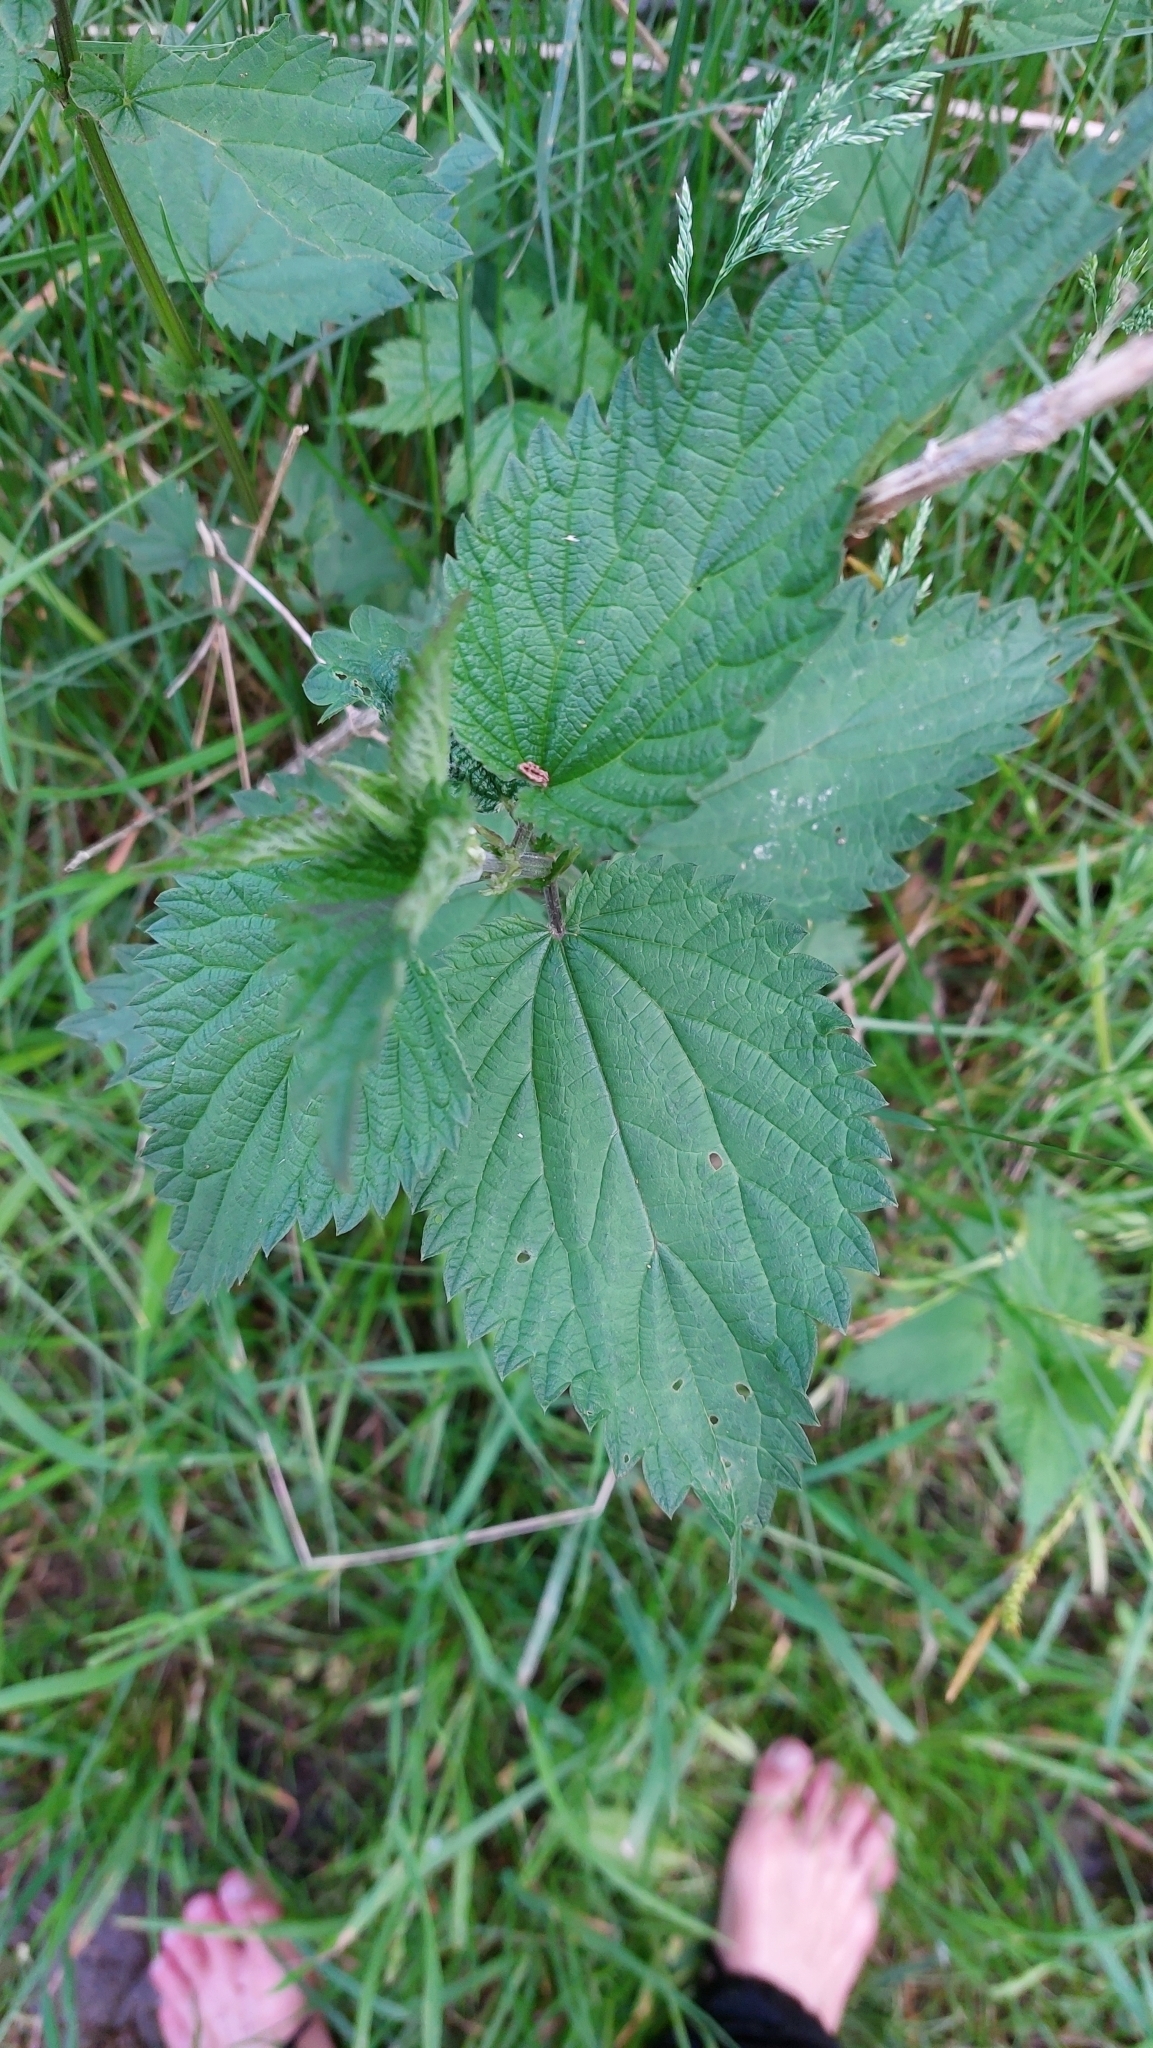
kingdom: Plantae
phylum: Tracheophyta
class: Magnoliopsida
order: Rosales
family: Urticaceae
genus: Urtica
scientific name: Urtica dioica
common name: Common nettle
